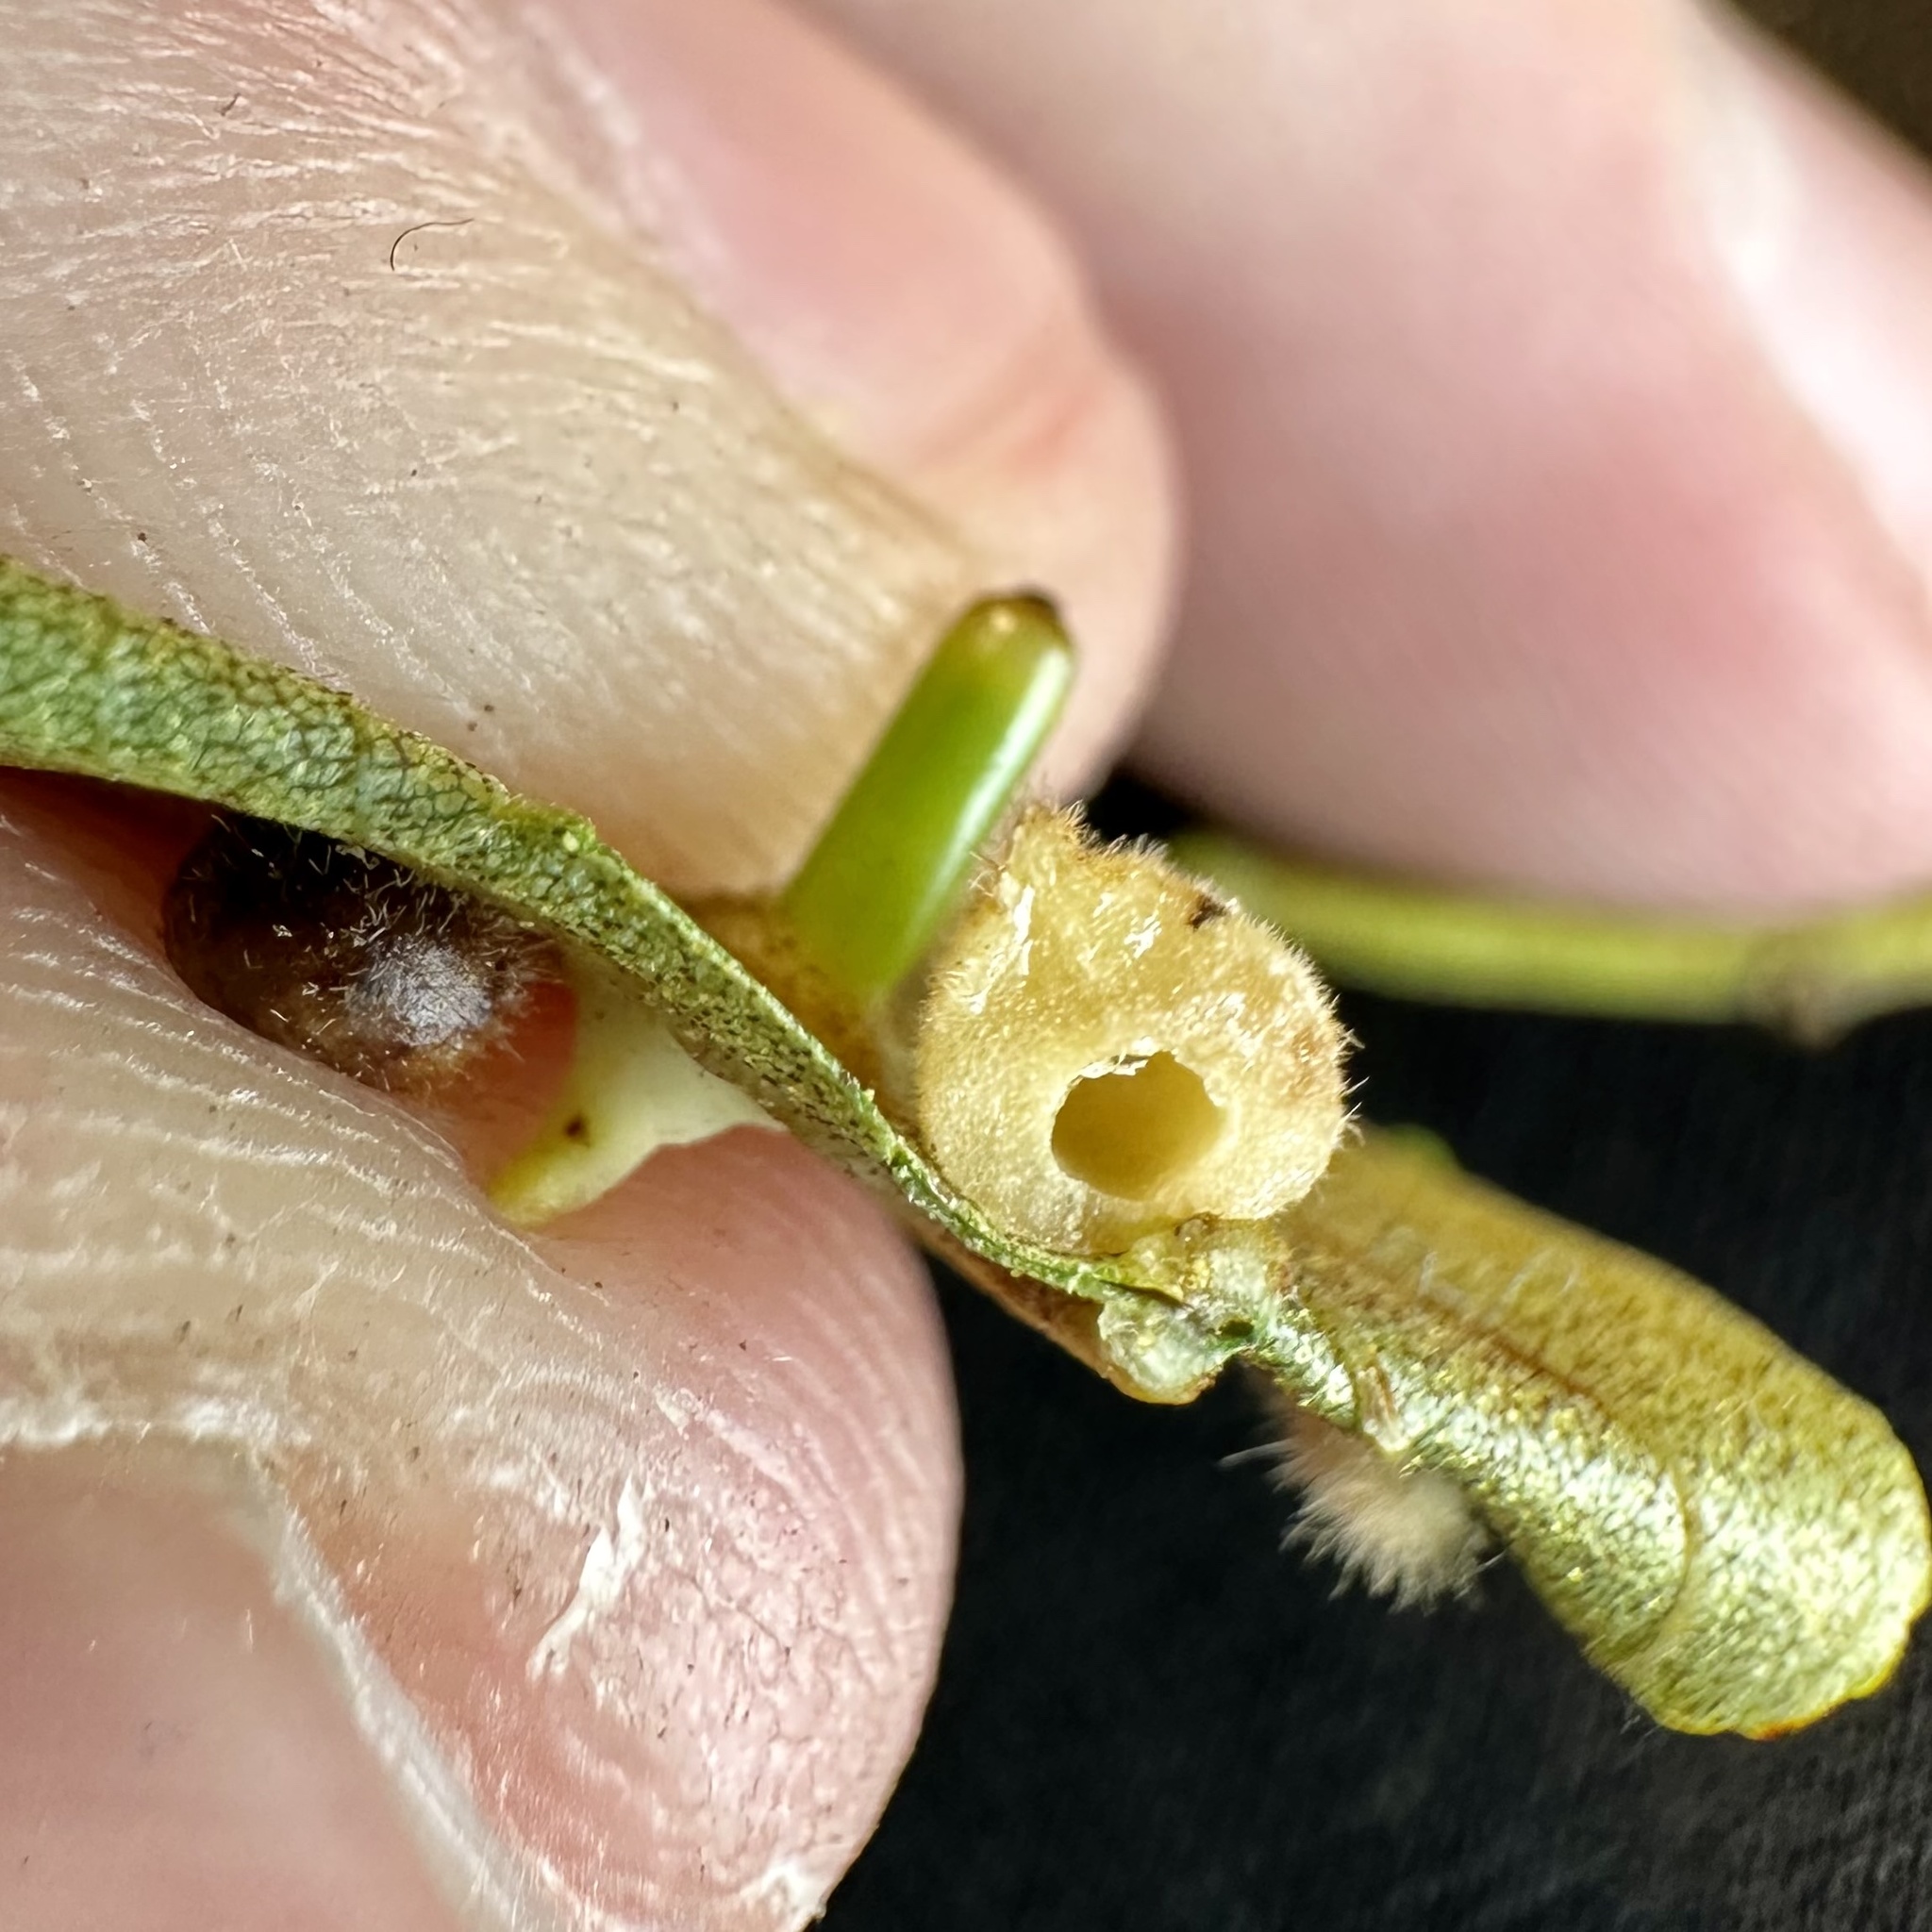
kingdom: Animalia
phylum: Arthropoda
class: Insecta
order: Diptera
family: Cecidomyiidae
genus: Caryomyia
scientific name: Caryomyia persicoides
